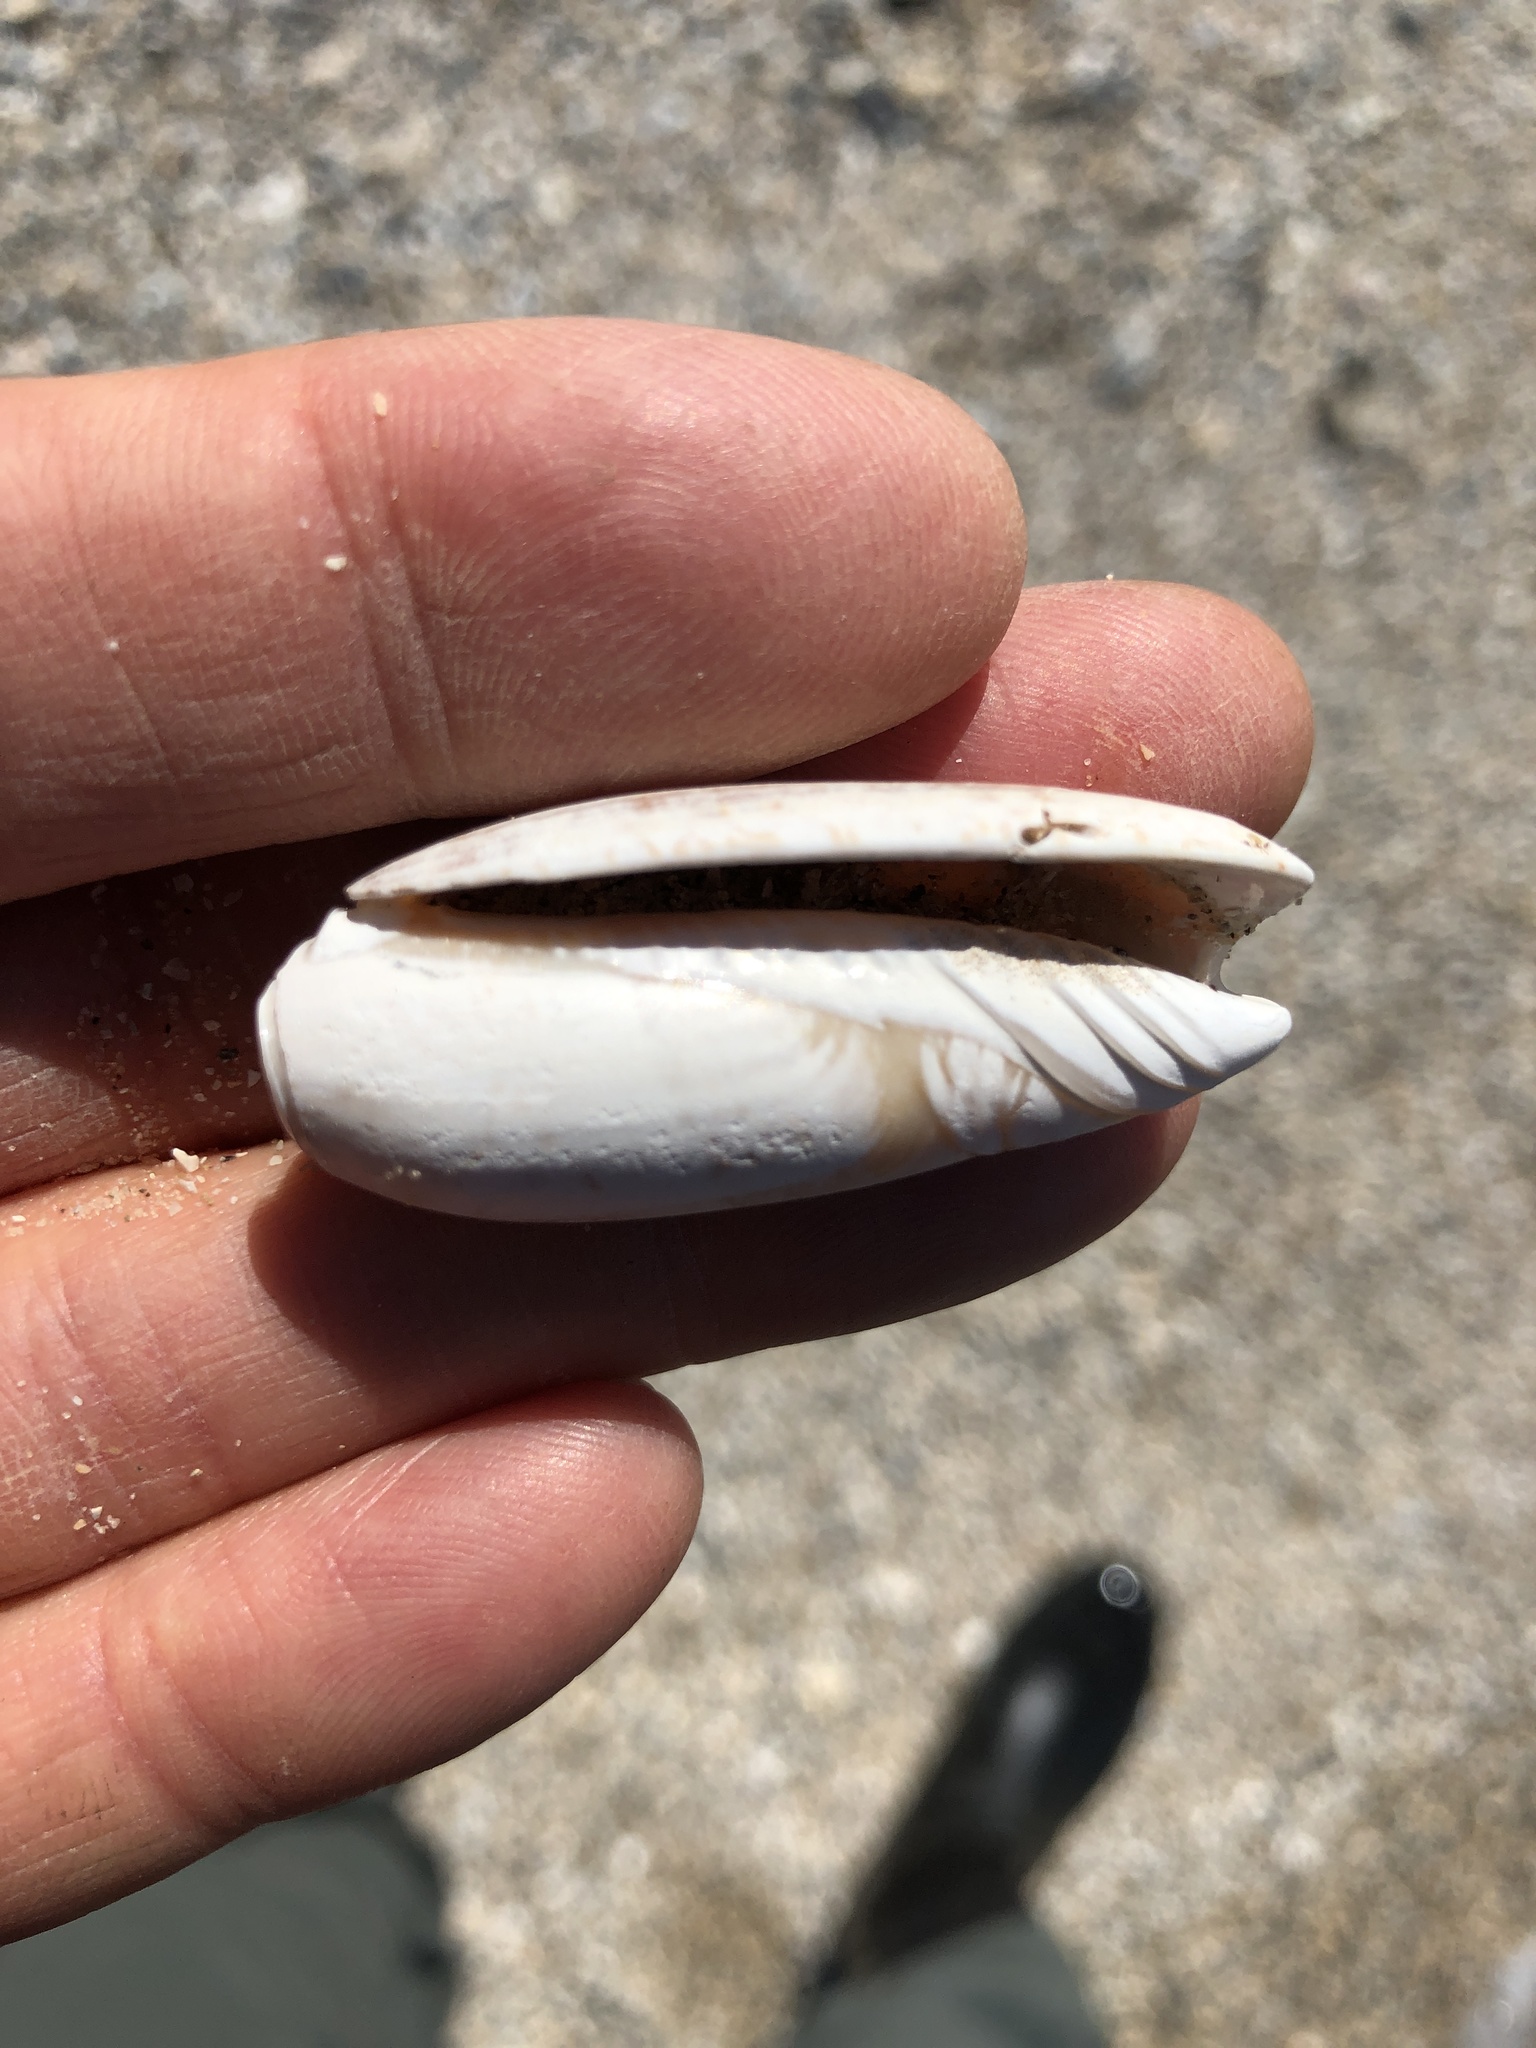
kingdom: Animalia
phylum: Mollusca
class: Gastropoda
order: Neogastropoda
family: Olividae
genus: Oliva
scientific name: Oliva sayana
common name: Lettered olive
